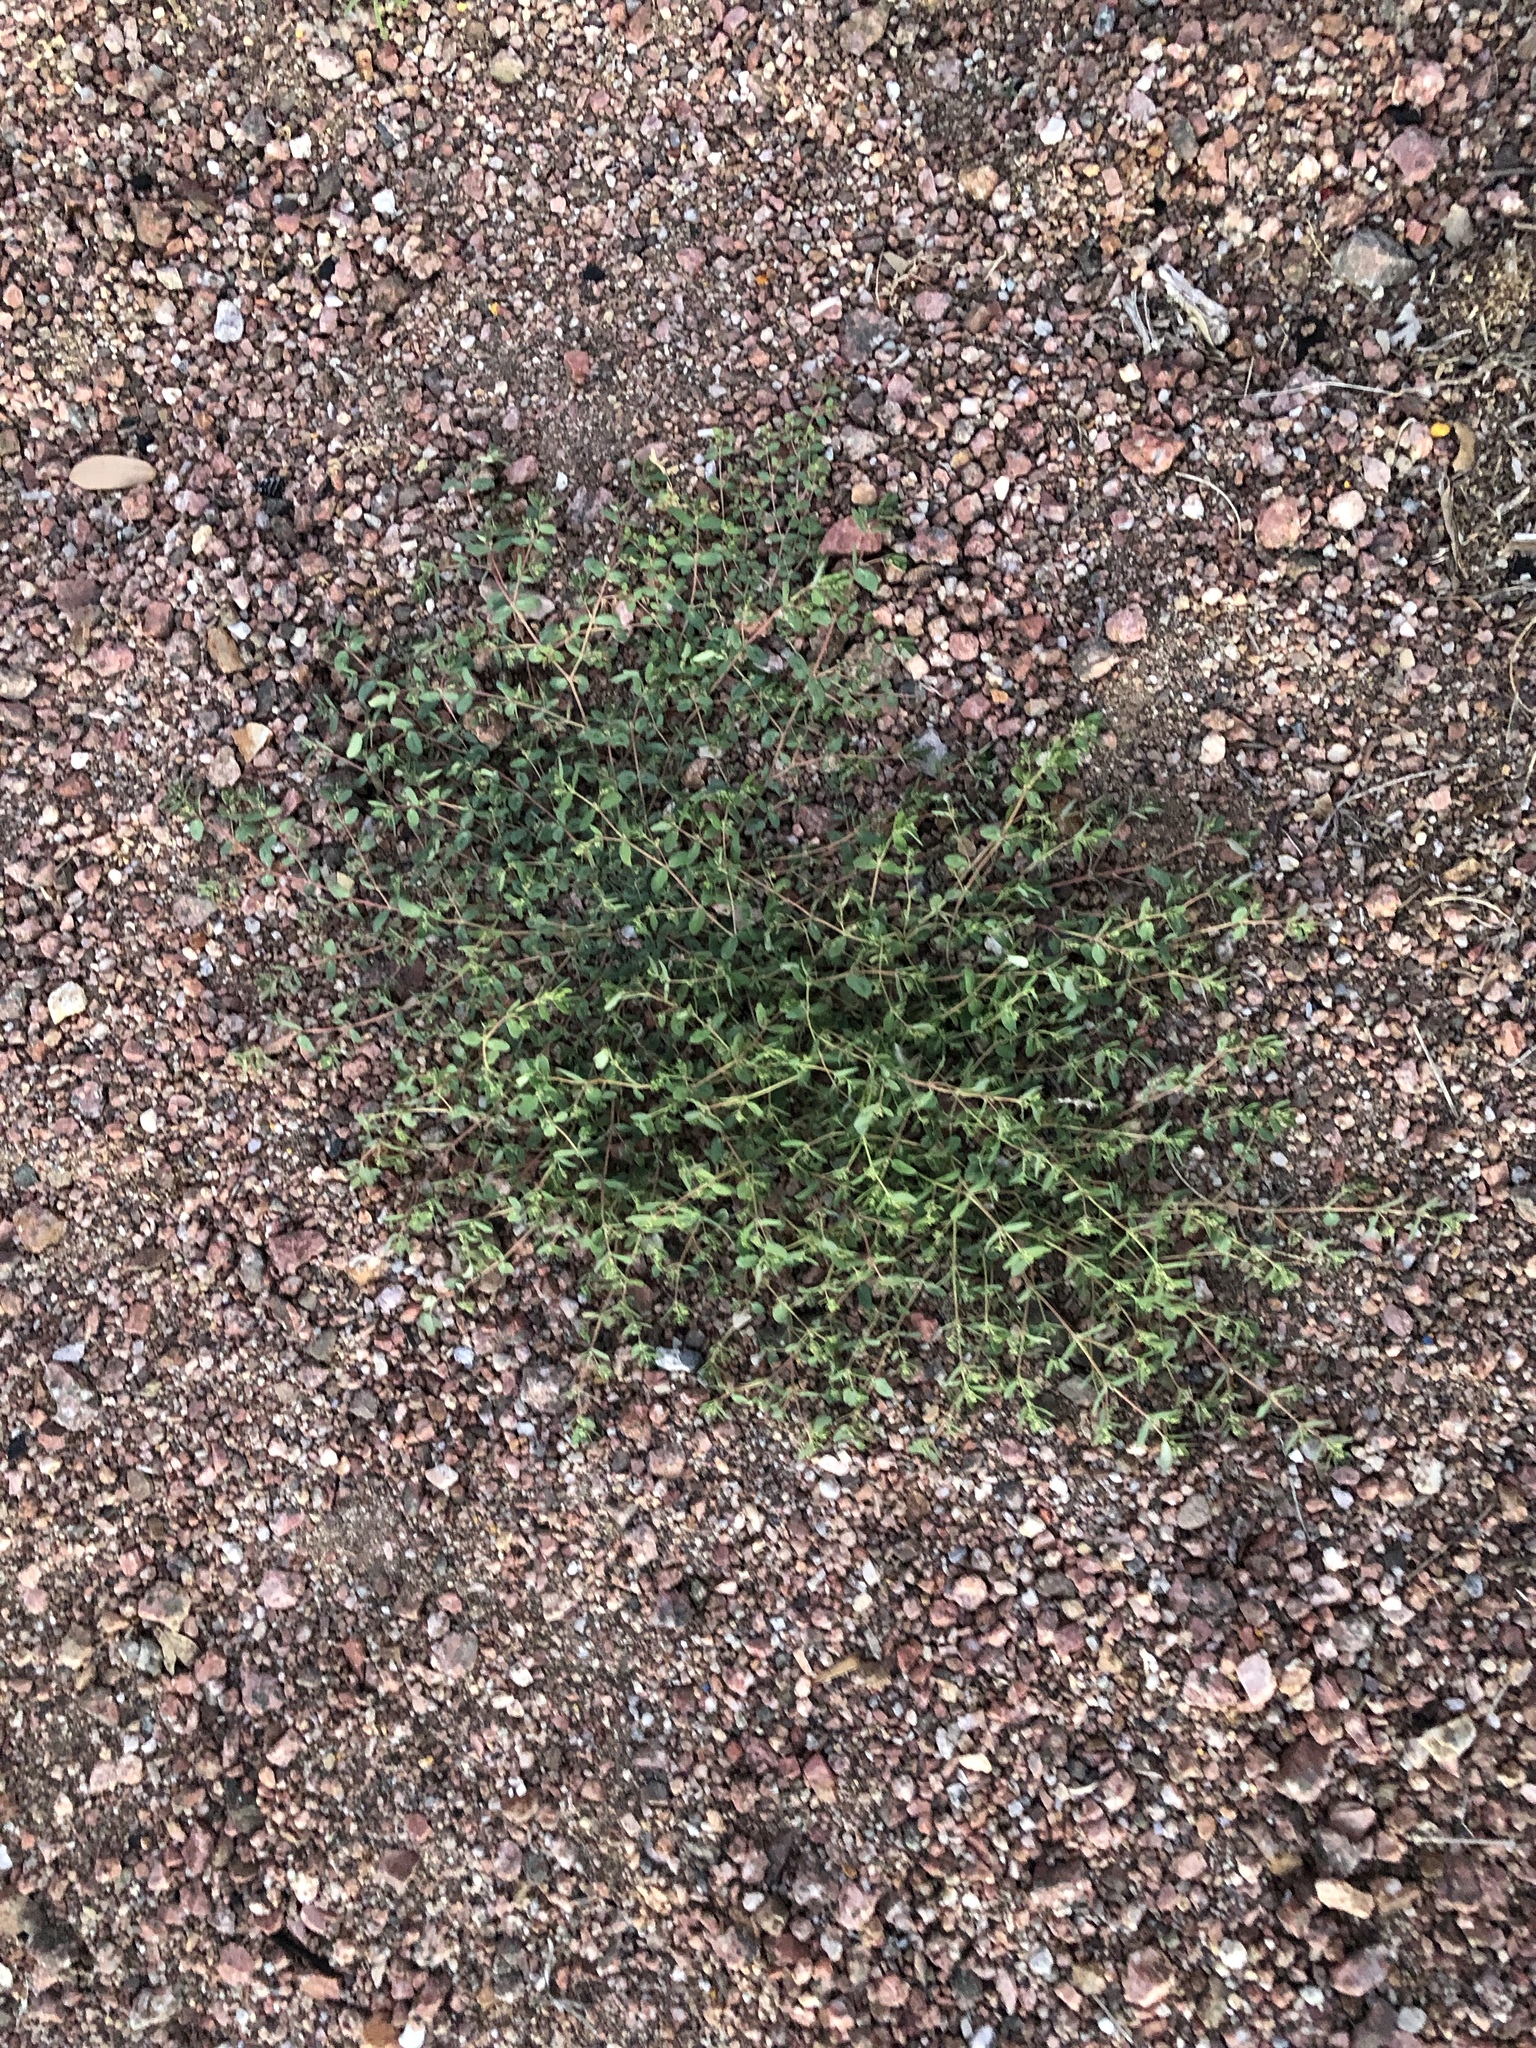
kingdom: Plantae
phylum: Tracheophyta
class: Magnoliopsida
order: Malpighiales
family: Euphorbiaceae
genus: Euphorbia
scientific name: Euphorbia abramsiana
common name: Abram's spurge
